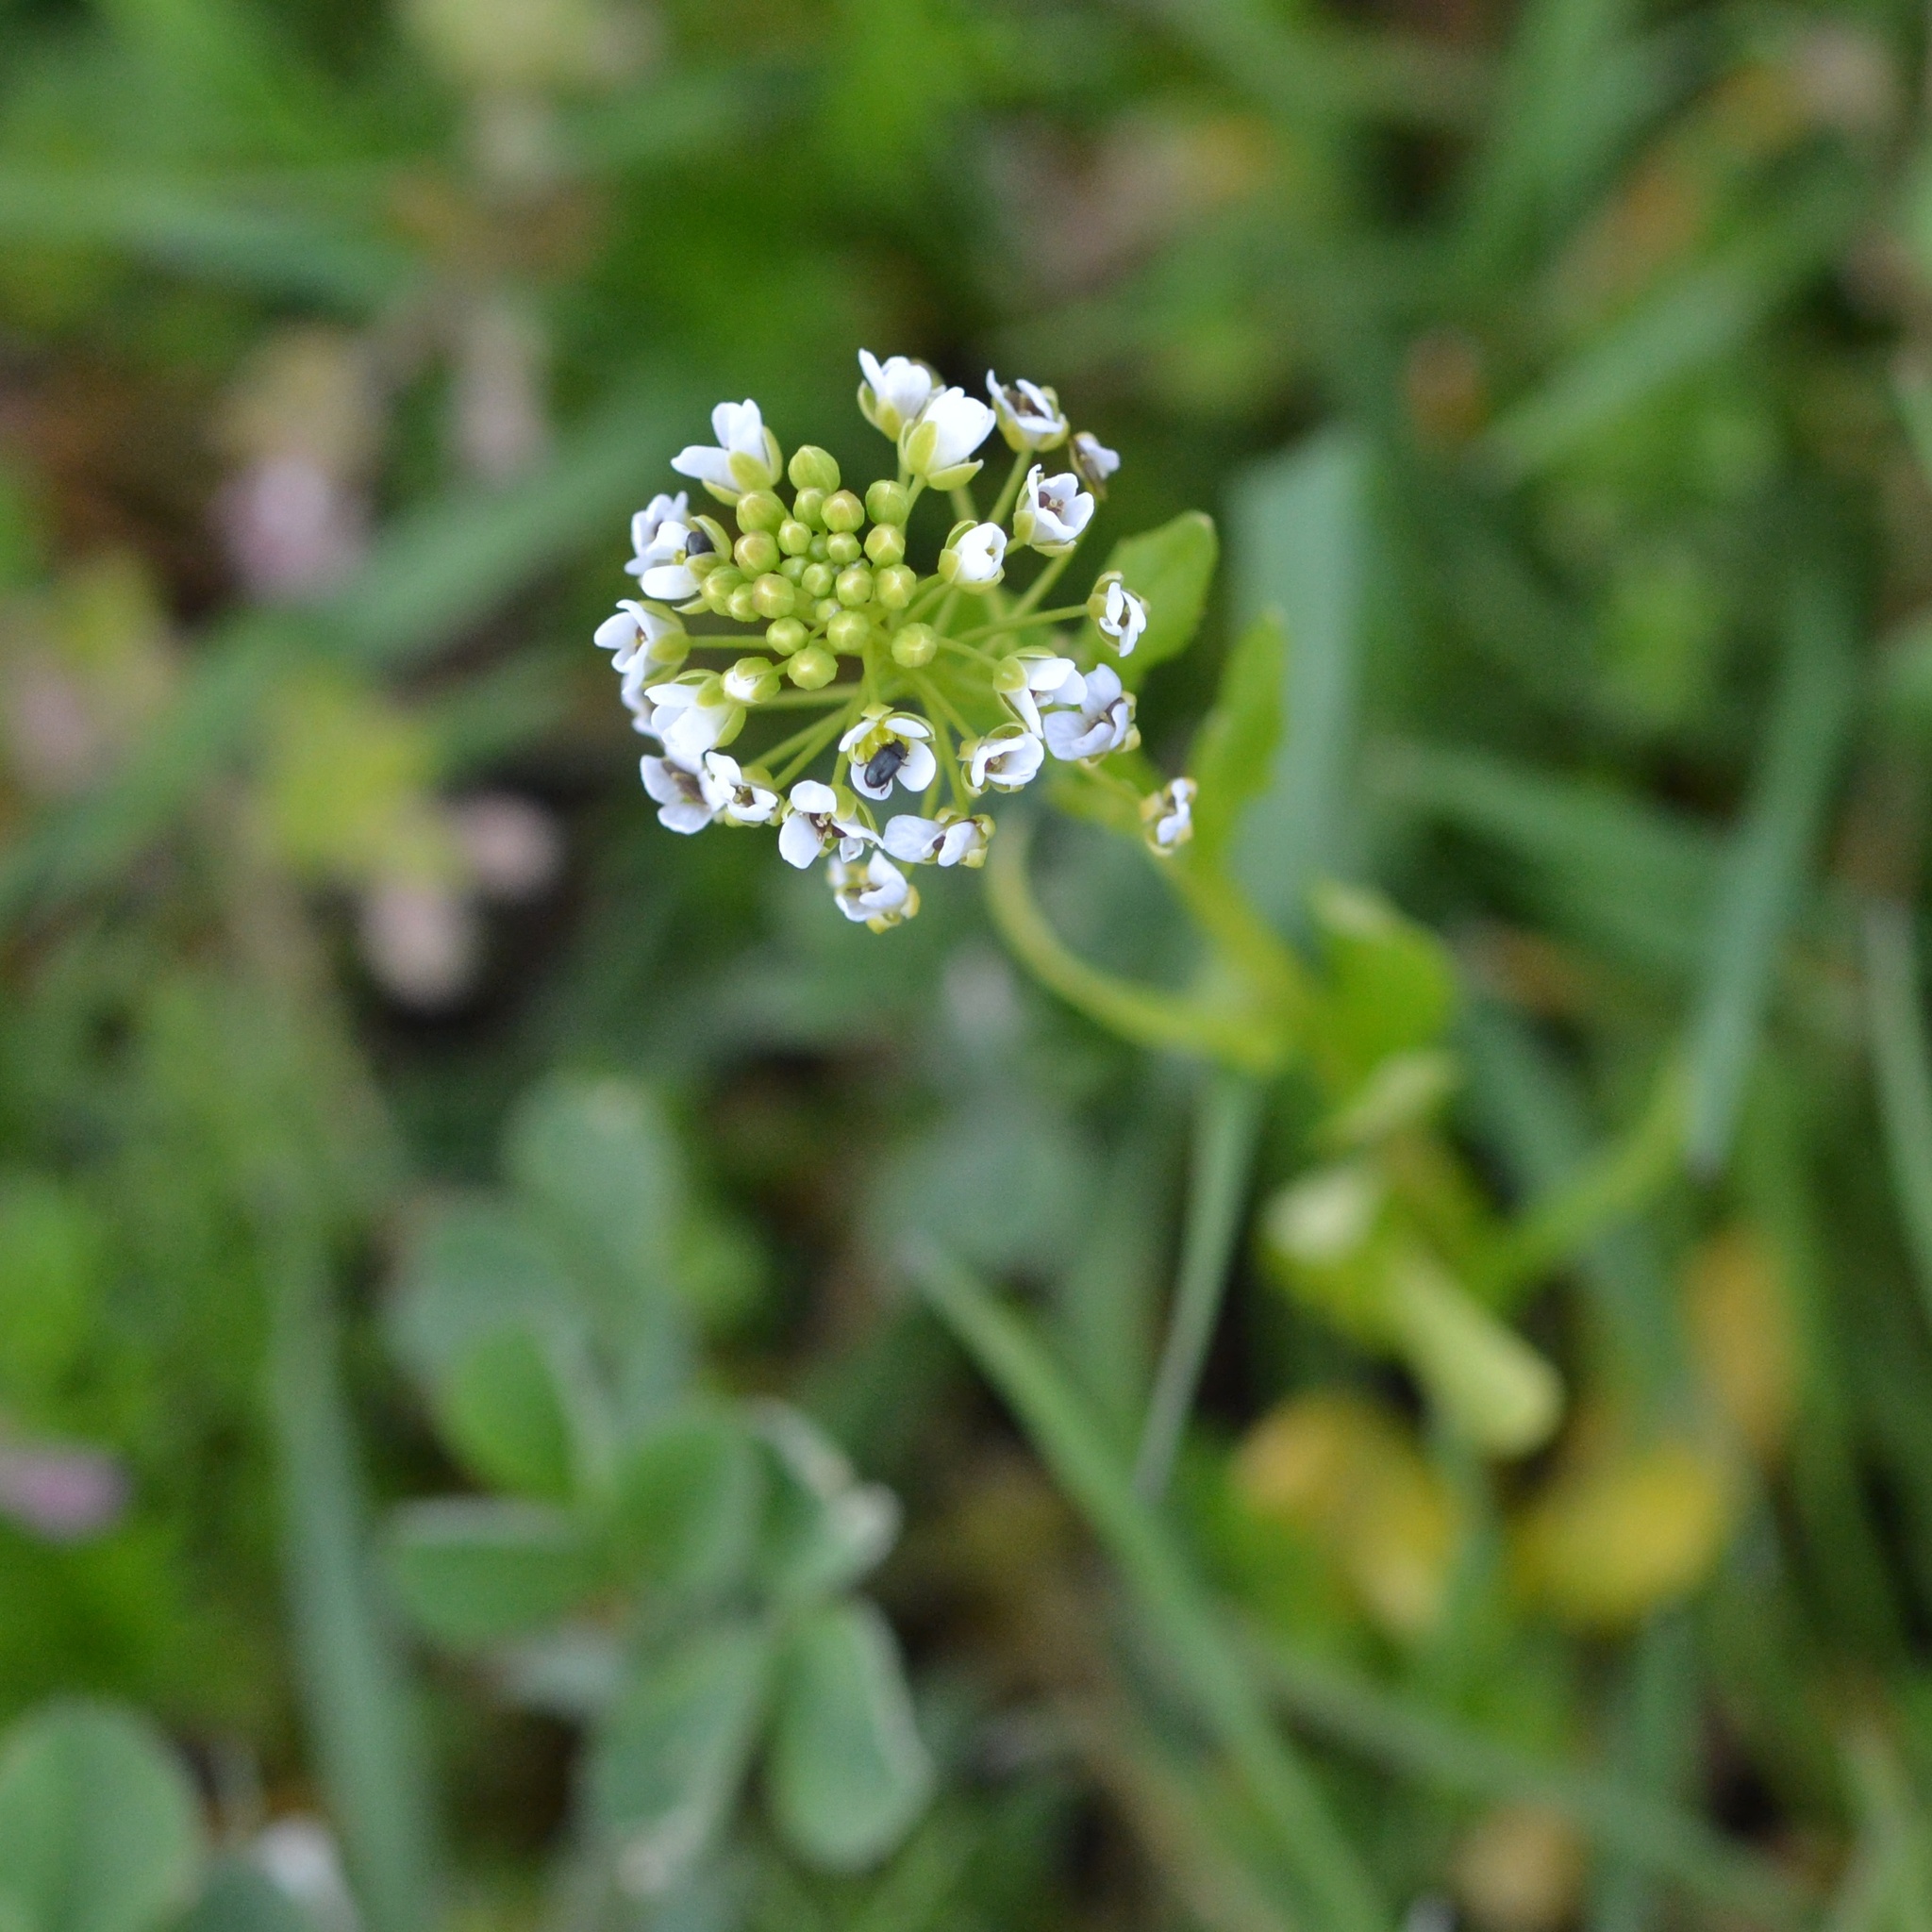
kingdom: Plantae
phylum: Tracheophyta
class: Magnoliopsida
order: Brassicales
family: Brassicaceae
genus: Thlaspi
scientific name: Thlaspi arvense
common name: Field pennycress
